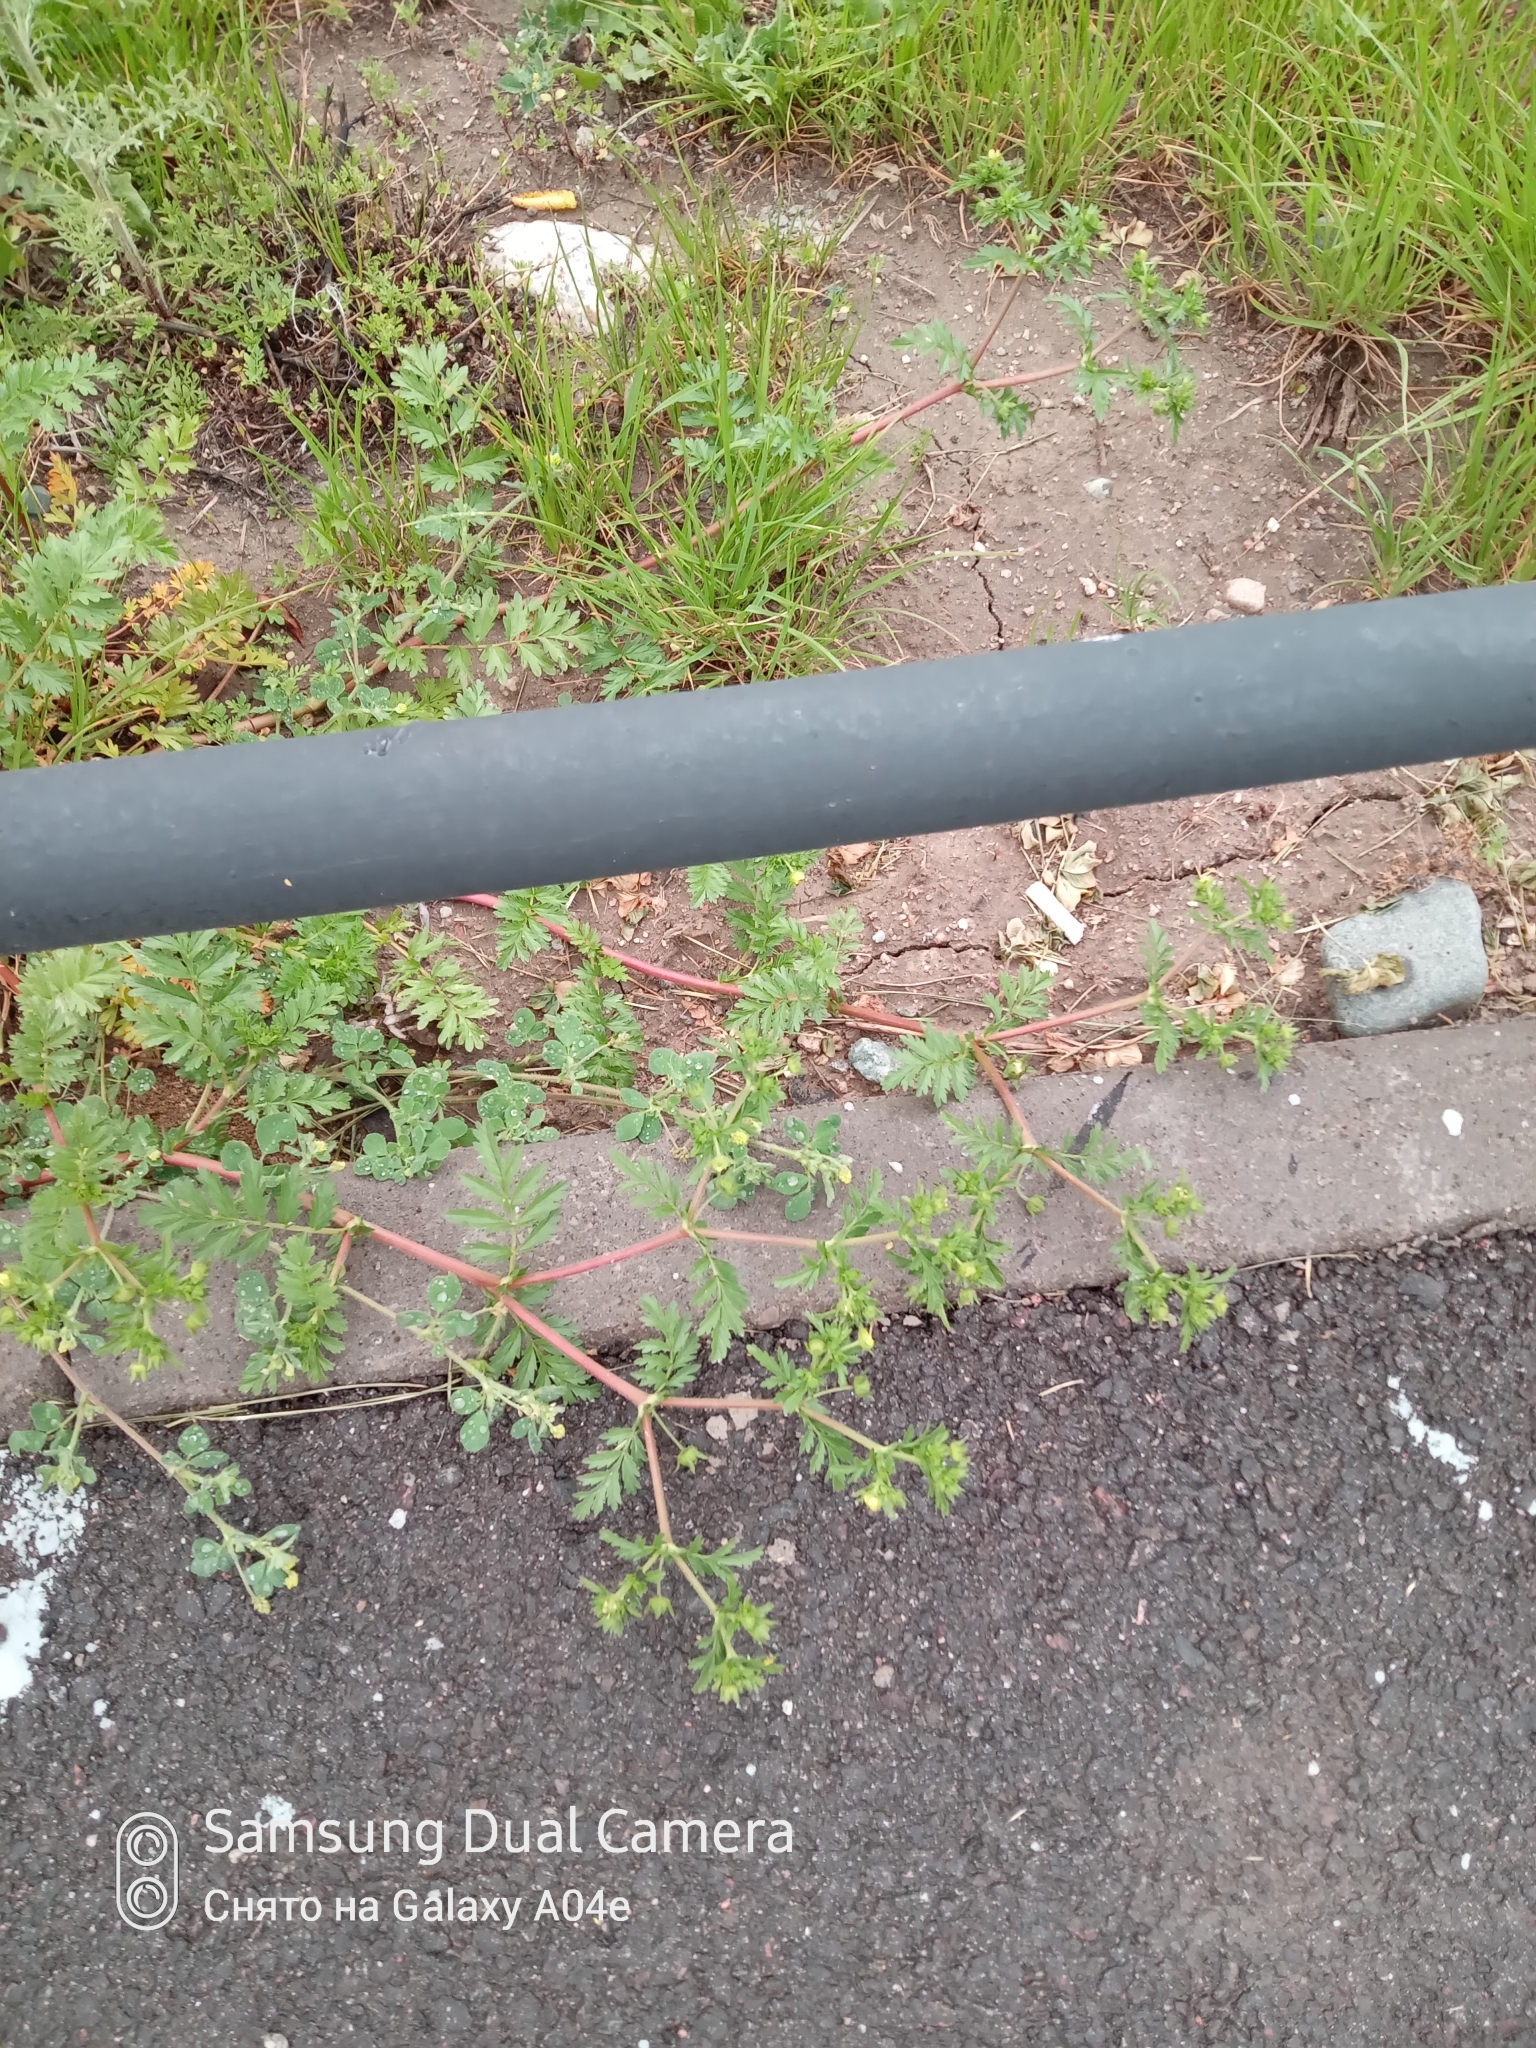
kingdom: Plantae
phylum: Tracheophyta
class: Magnoliopsida
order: Rosales
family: Rosaceae
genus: Argentina
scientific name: Argentina anserina
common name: Common silverweed
